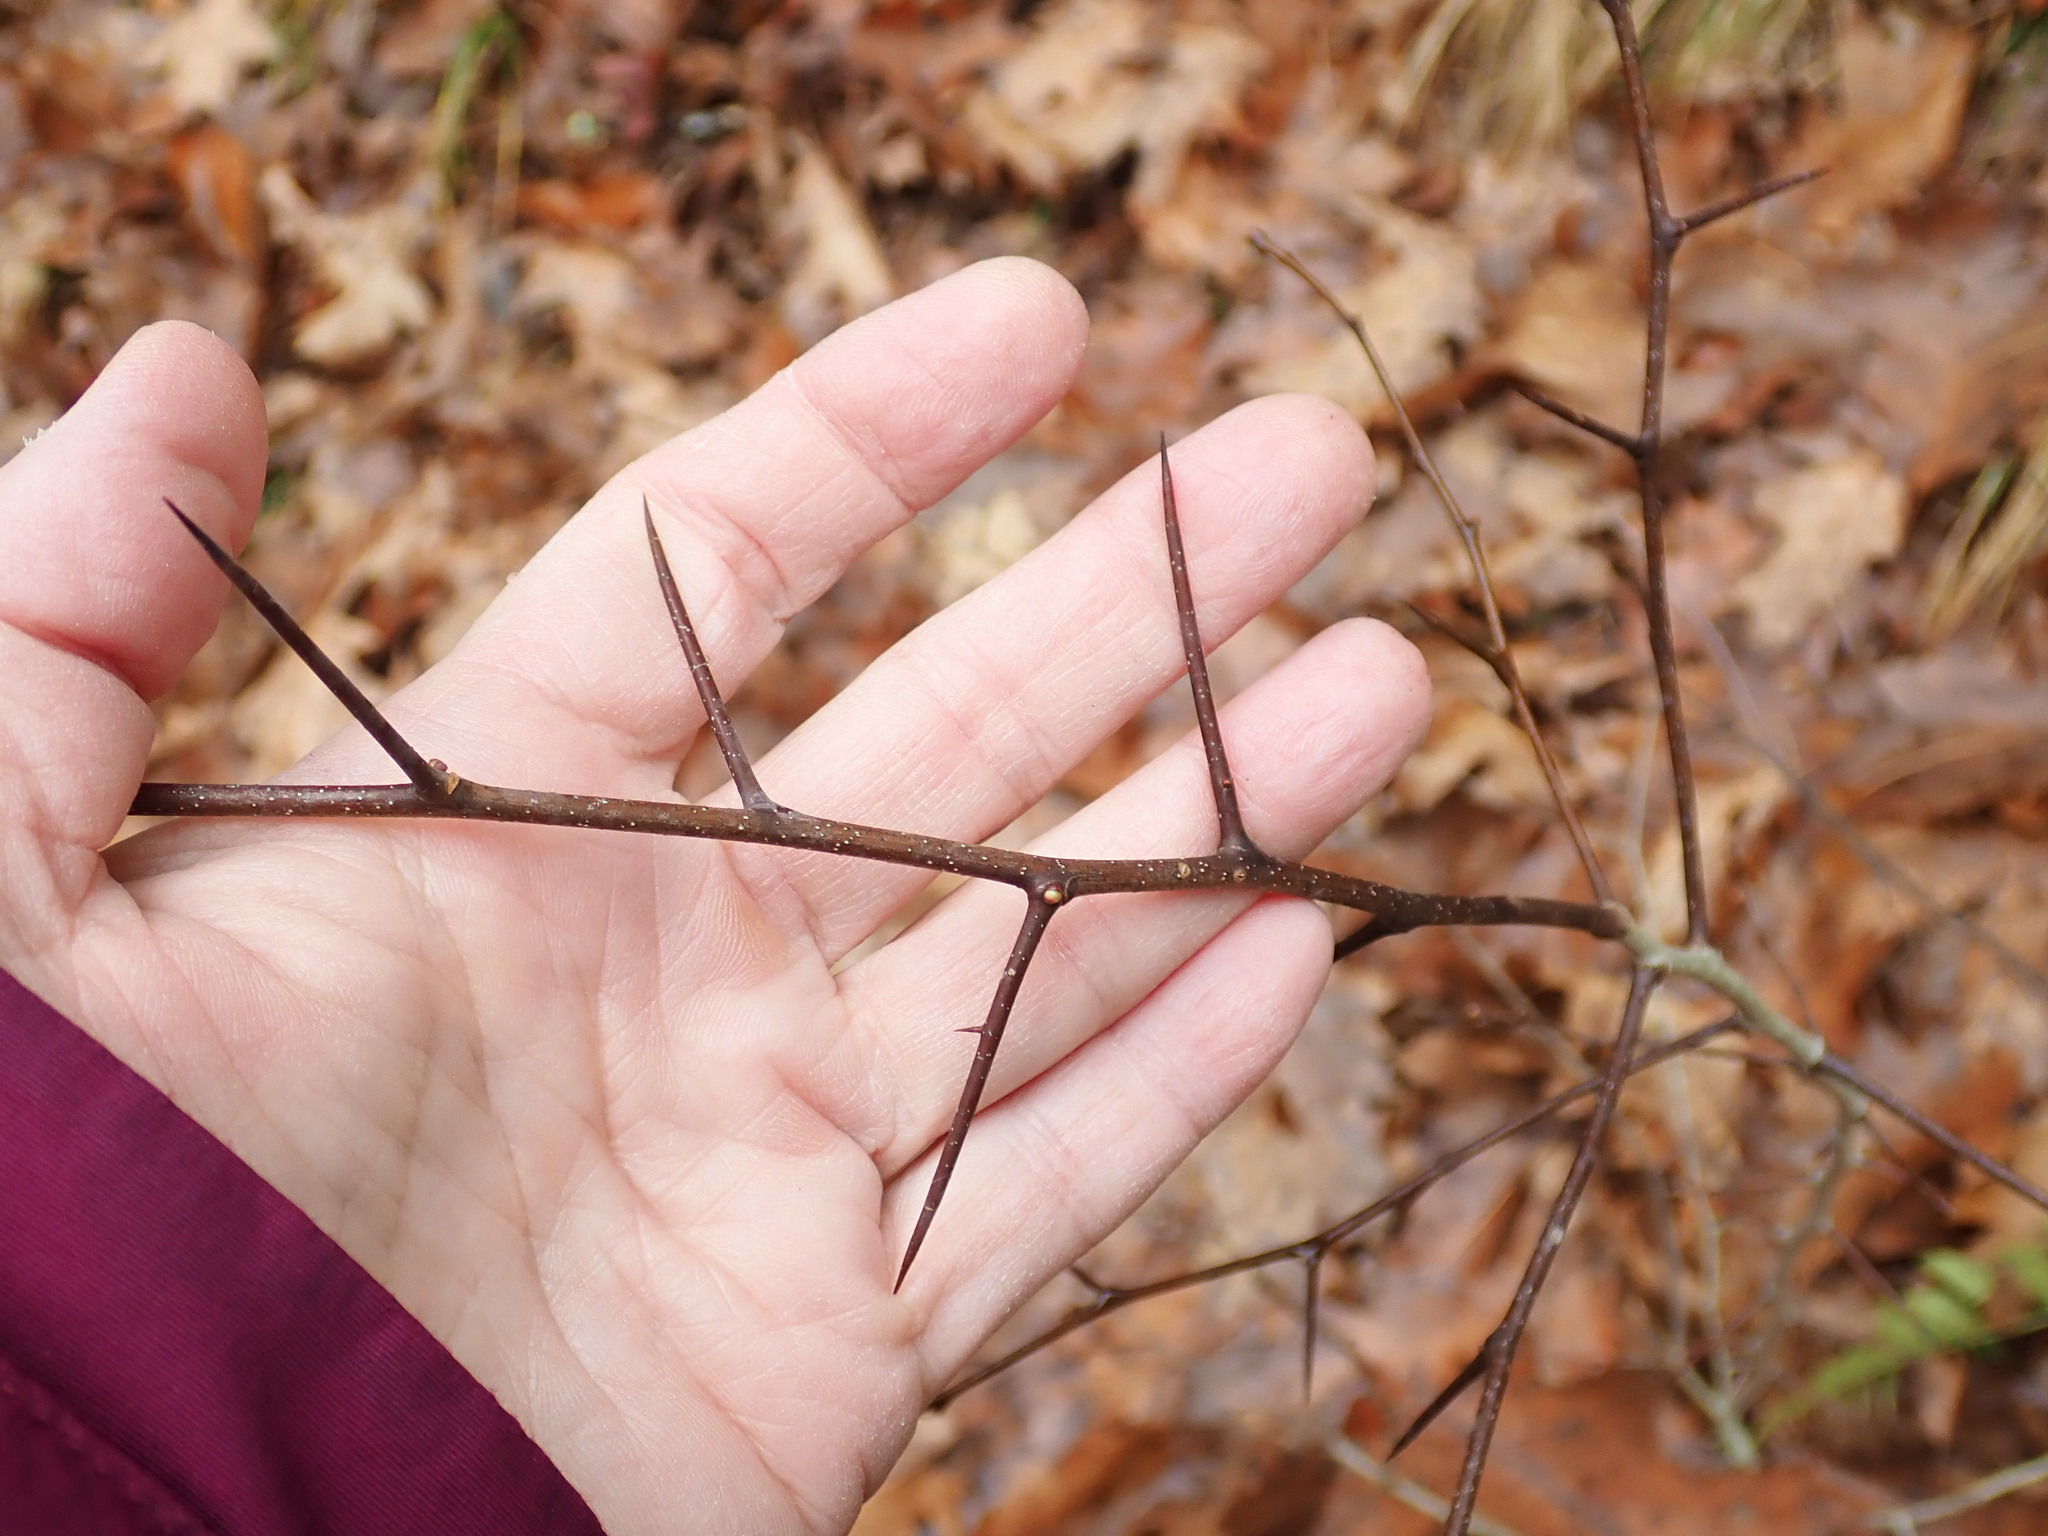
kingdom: Plantae
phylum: Tracheophyta
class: Magnoliopsida
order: Rosales
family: Rosaceae
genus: Crataegus
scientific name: Crataegus
